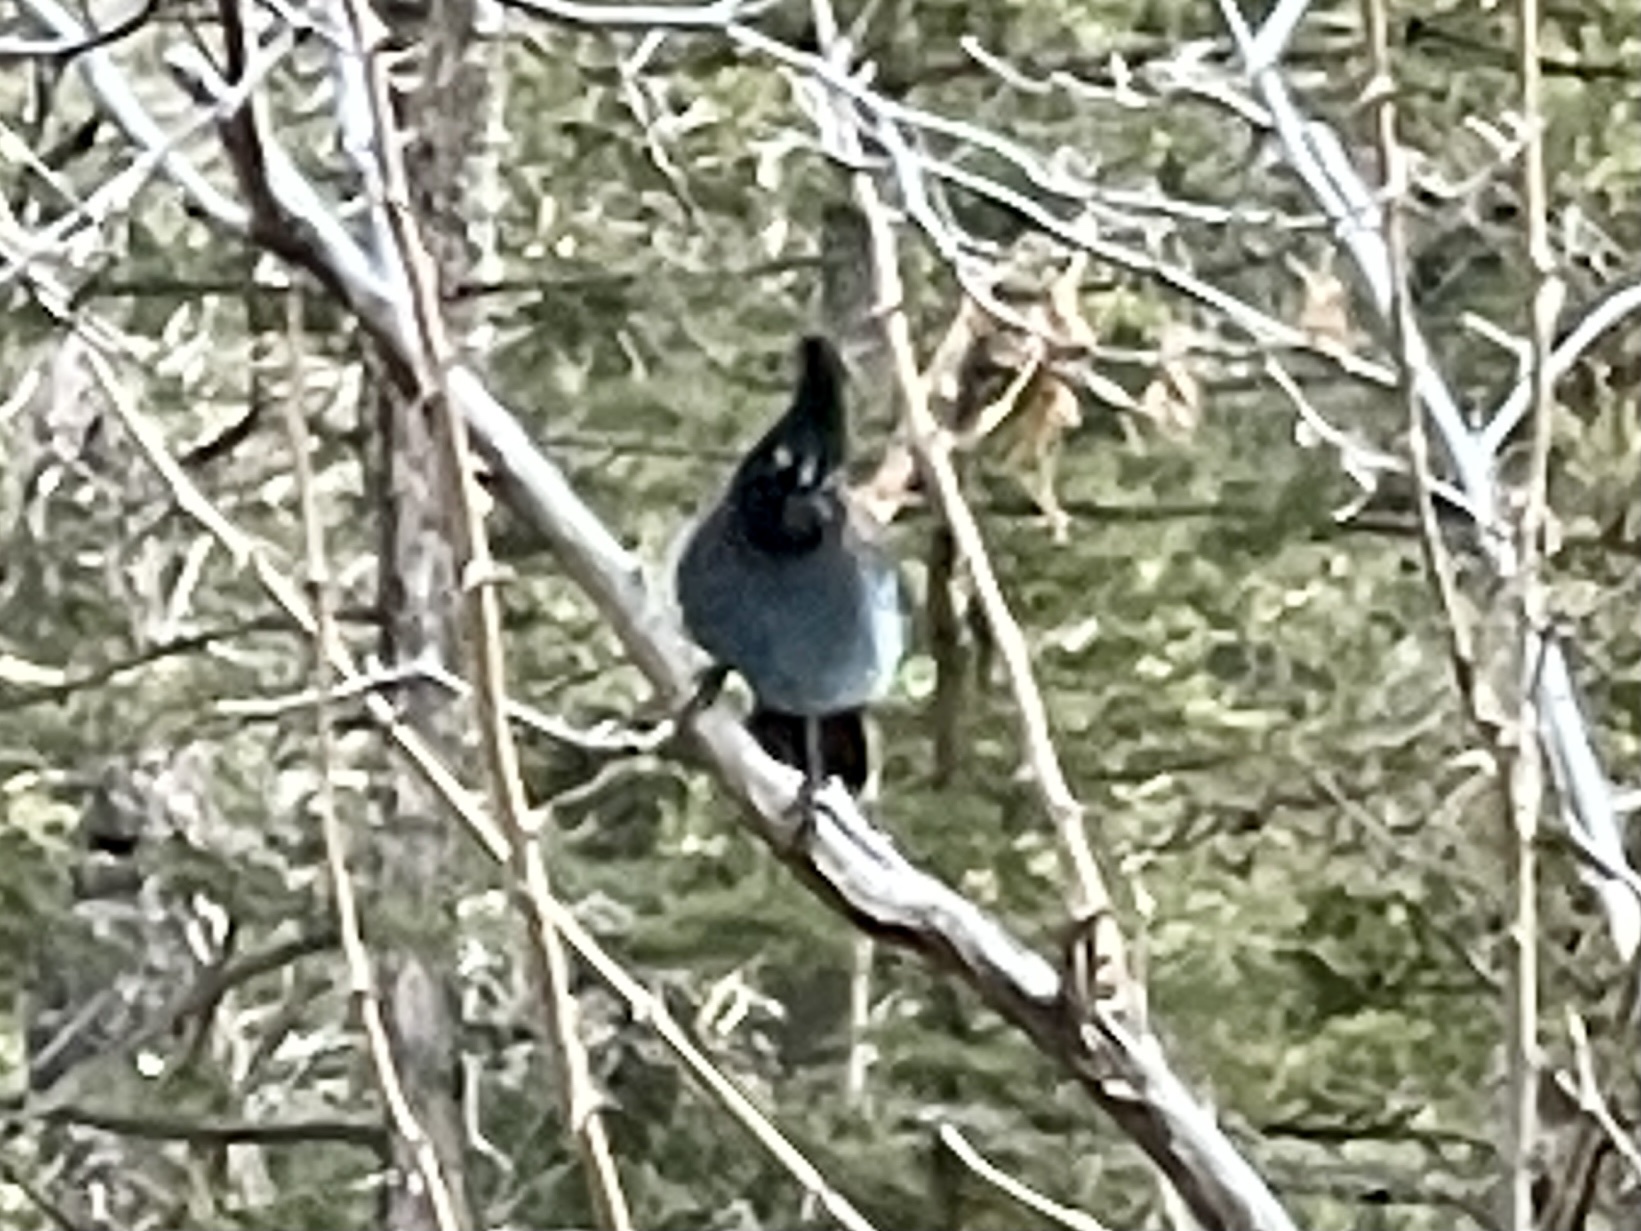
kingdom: Animalia
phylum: Chordata
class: Aves
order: Passeriformes
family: Corvidae
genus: Cyanocitta
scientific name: Cyanocitta stelleri
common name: Steller's jay
